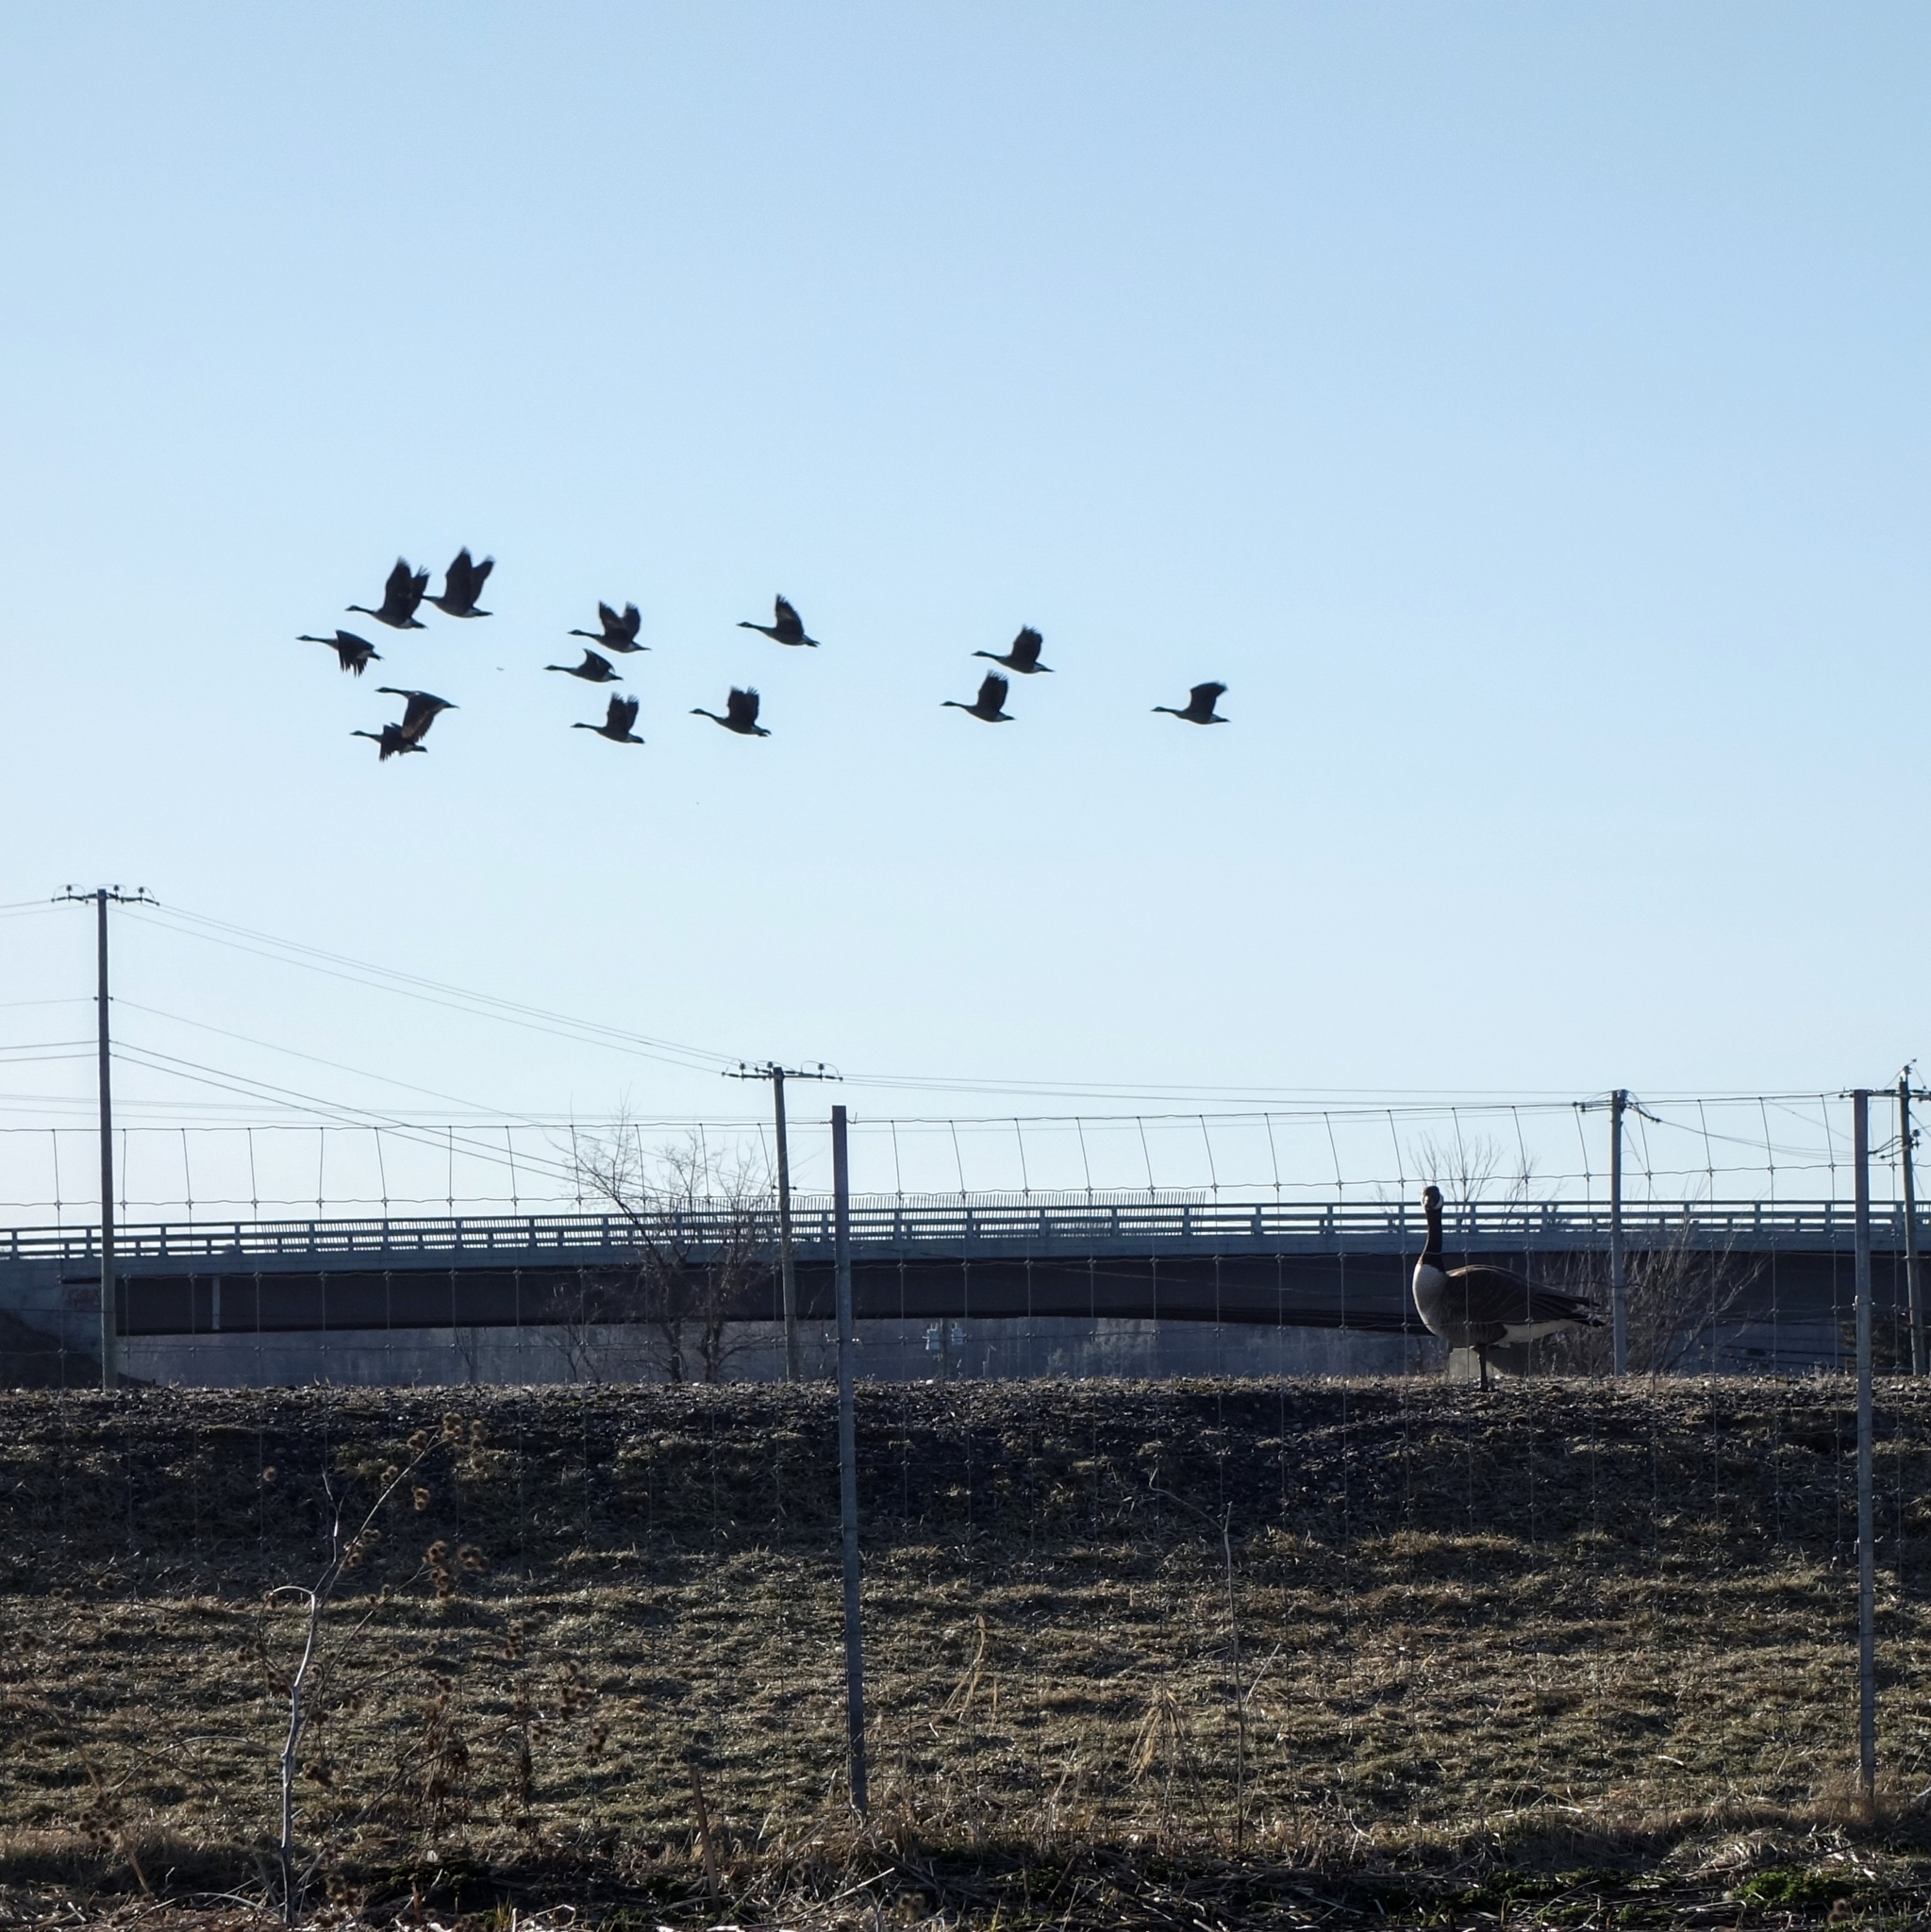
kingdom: Animalia
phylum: Chordata
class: Aves
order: Anseriformes
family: Anatidae
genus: Branta
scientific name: Branta canadensis
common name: Canada goose
